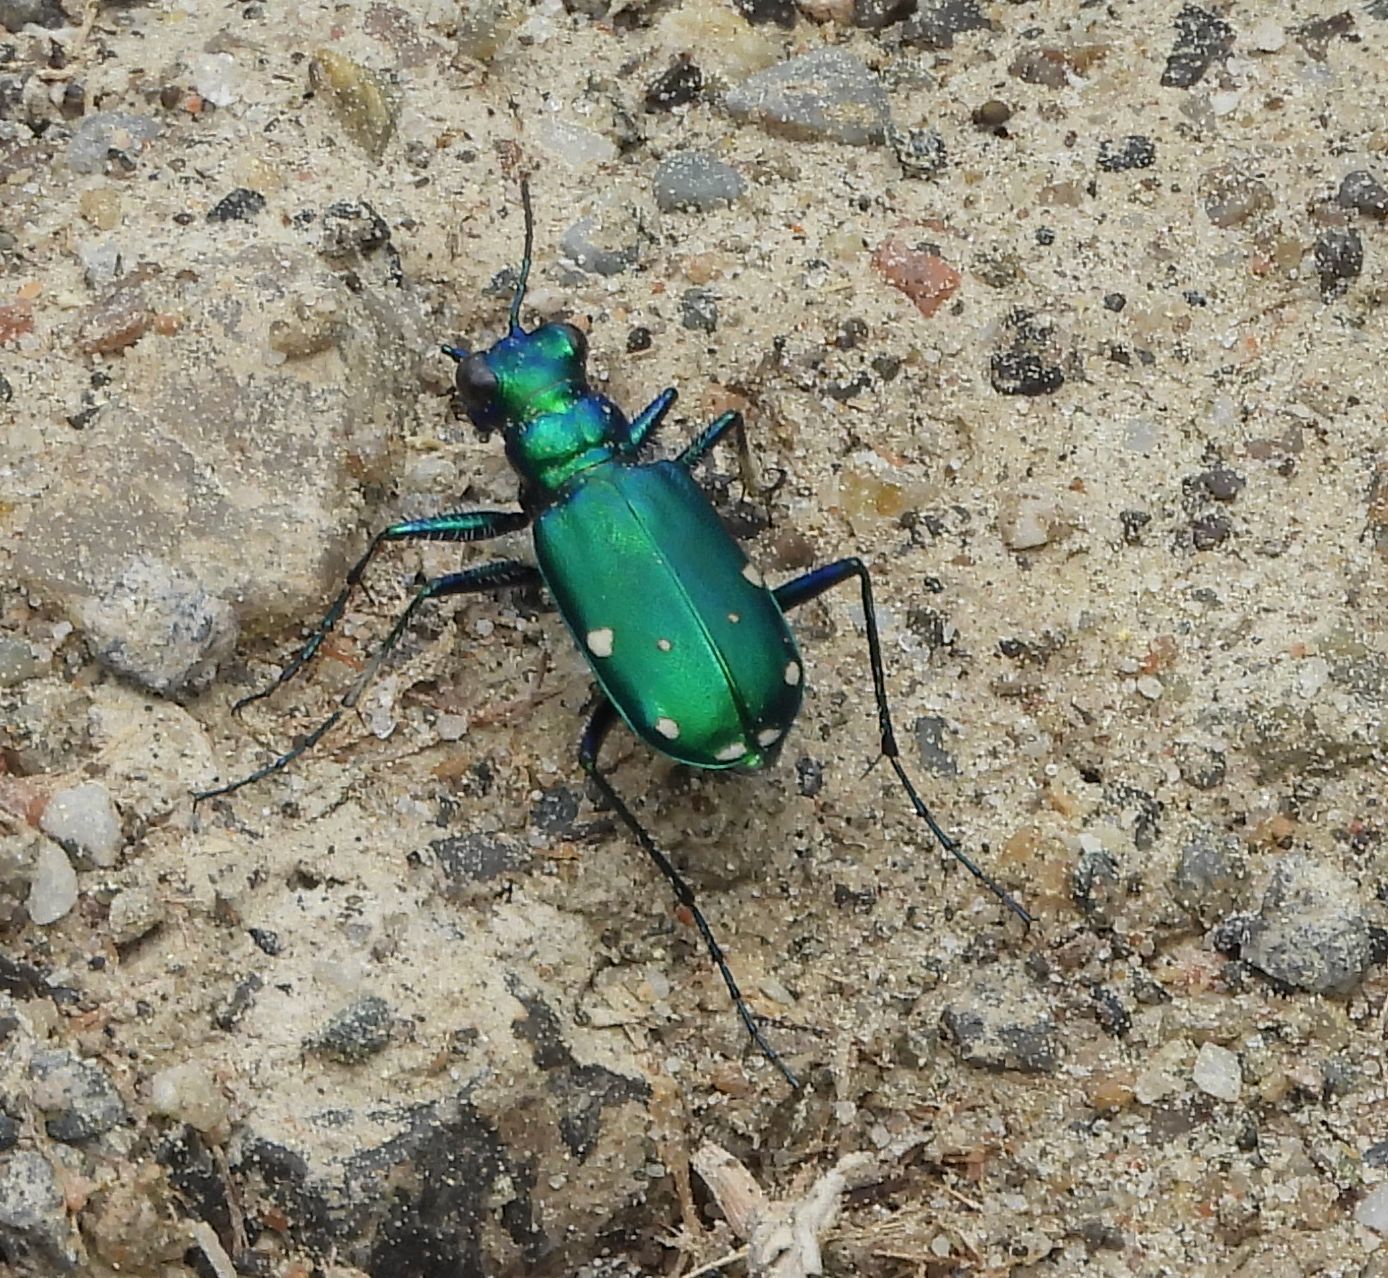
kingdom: Animalia
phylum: Arthropoda
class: Insecta
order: Coleoptera
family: Carabidae
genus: Cicindela
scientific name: Cicindela sexguttata
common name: Six-spotted tiger beetle
